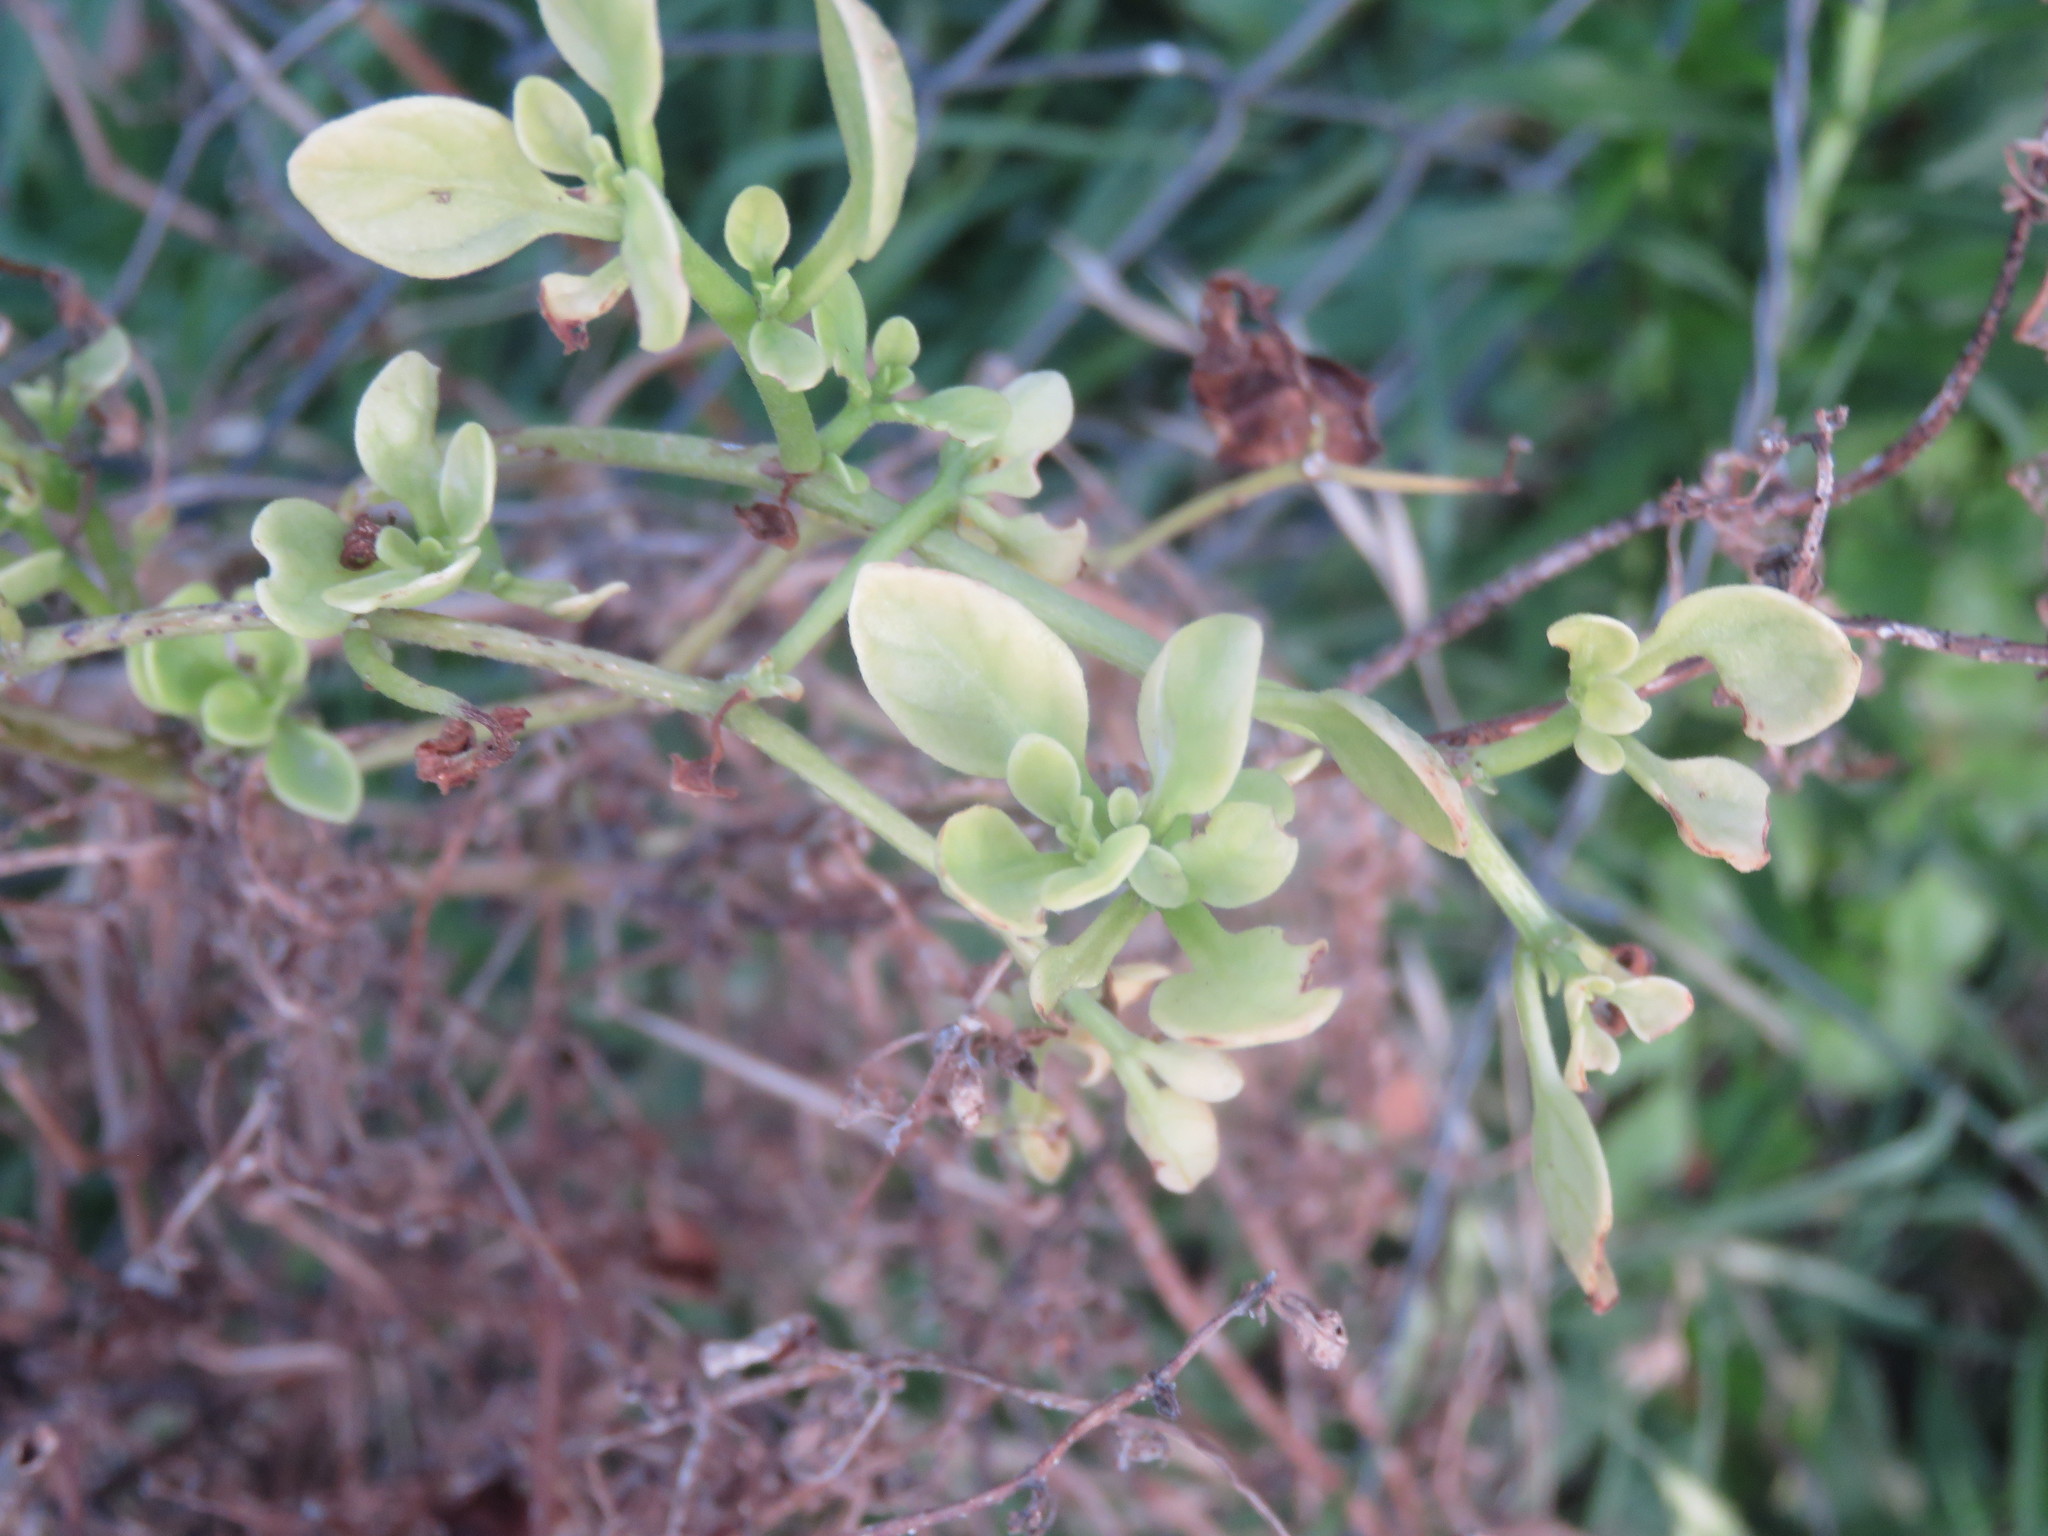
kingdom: Plantae
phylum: Tracheophyta
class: Magnoliopsida
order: Solanales
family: Solanaceae
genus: Salpichroa
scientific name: Salpichroa origanifolia
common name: Lily-of-the-valley-vine
